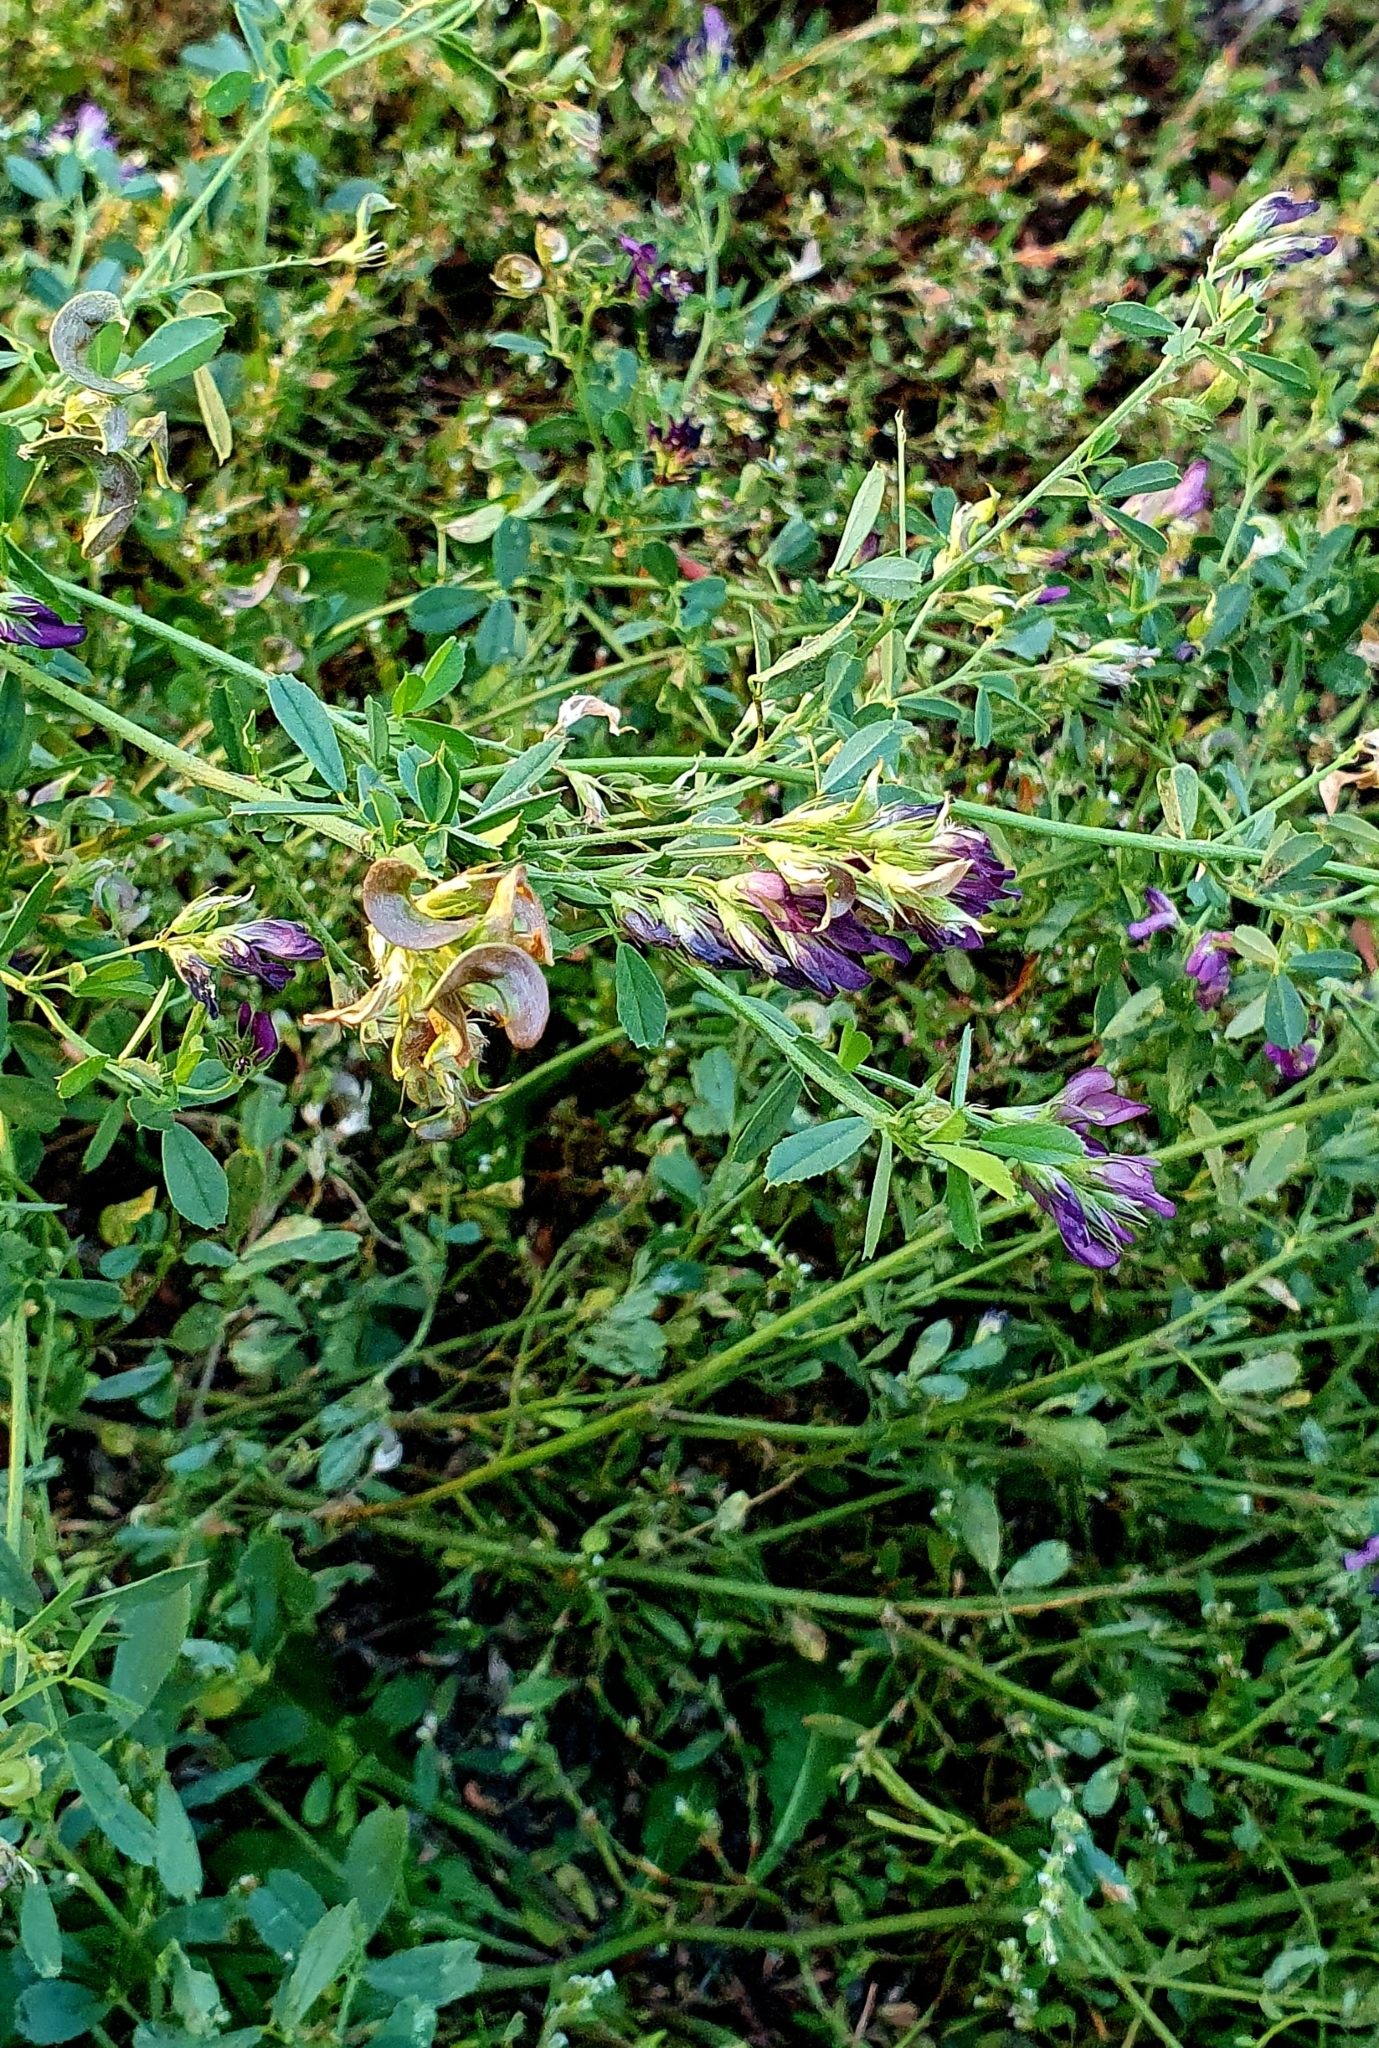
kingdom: Plantae
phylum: Tracheophyta
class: Magnoliopsida
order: Fabales
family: Fabaceae
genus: Medicago
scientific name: Medicago sativa
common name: Alfalfa
